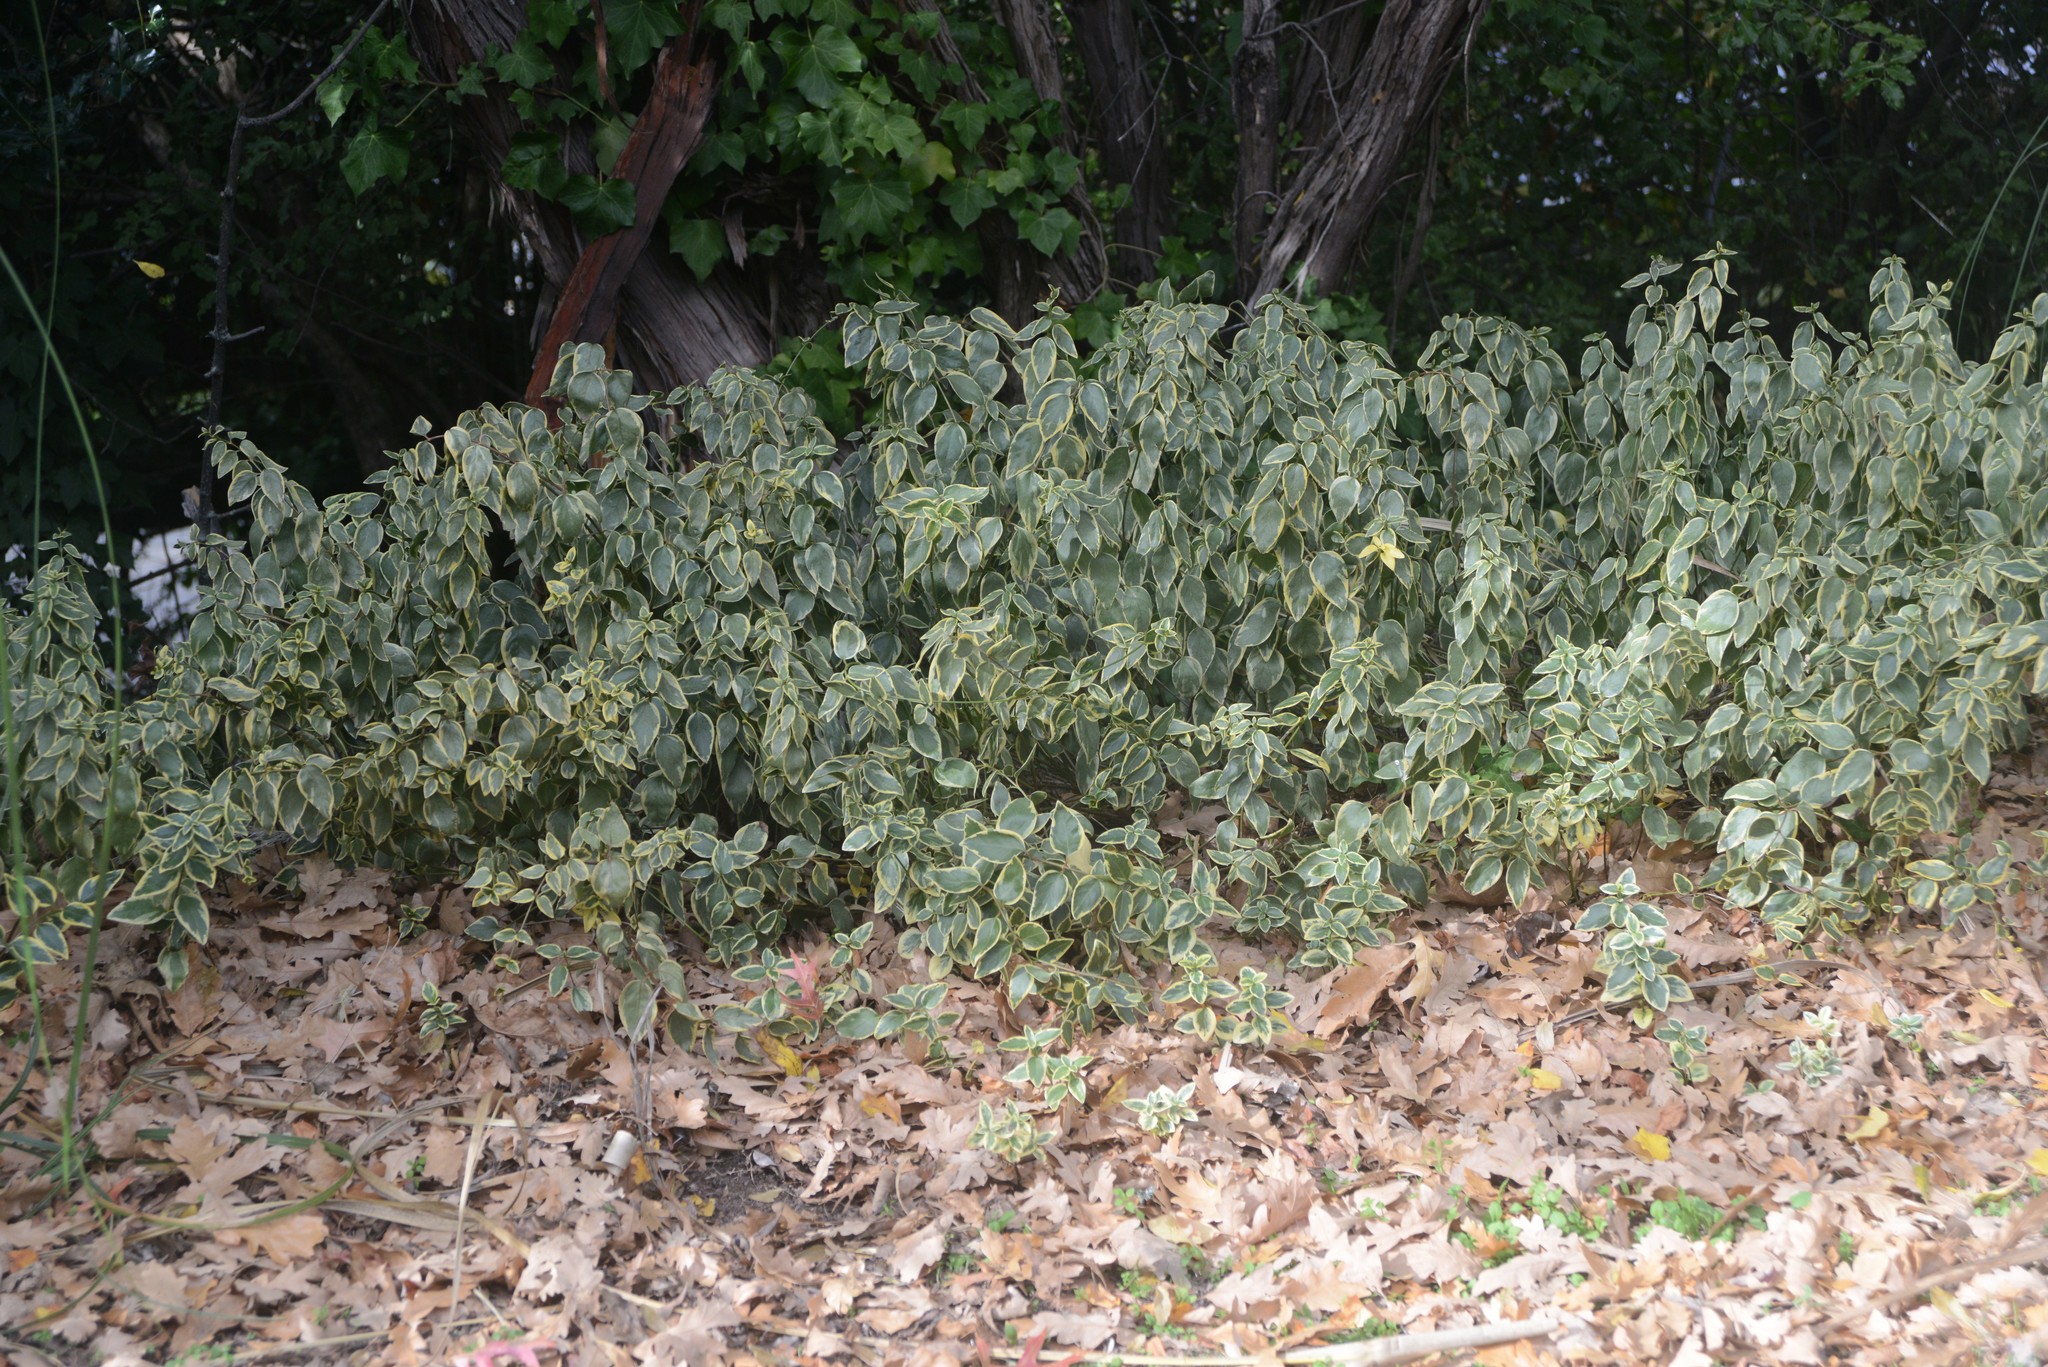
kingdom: Plantae
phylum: Tracheophyta
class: Magnoliopsida
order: Gentianales
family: Apocynaceae
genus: Vinca
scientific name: Vinca major
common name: Greater periwinkle
